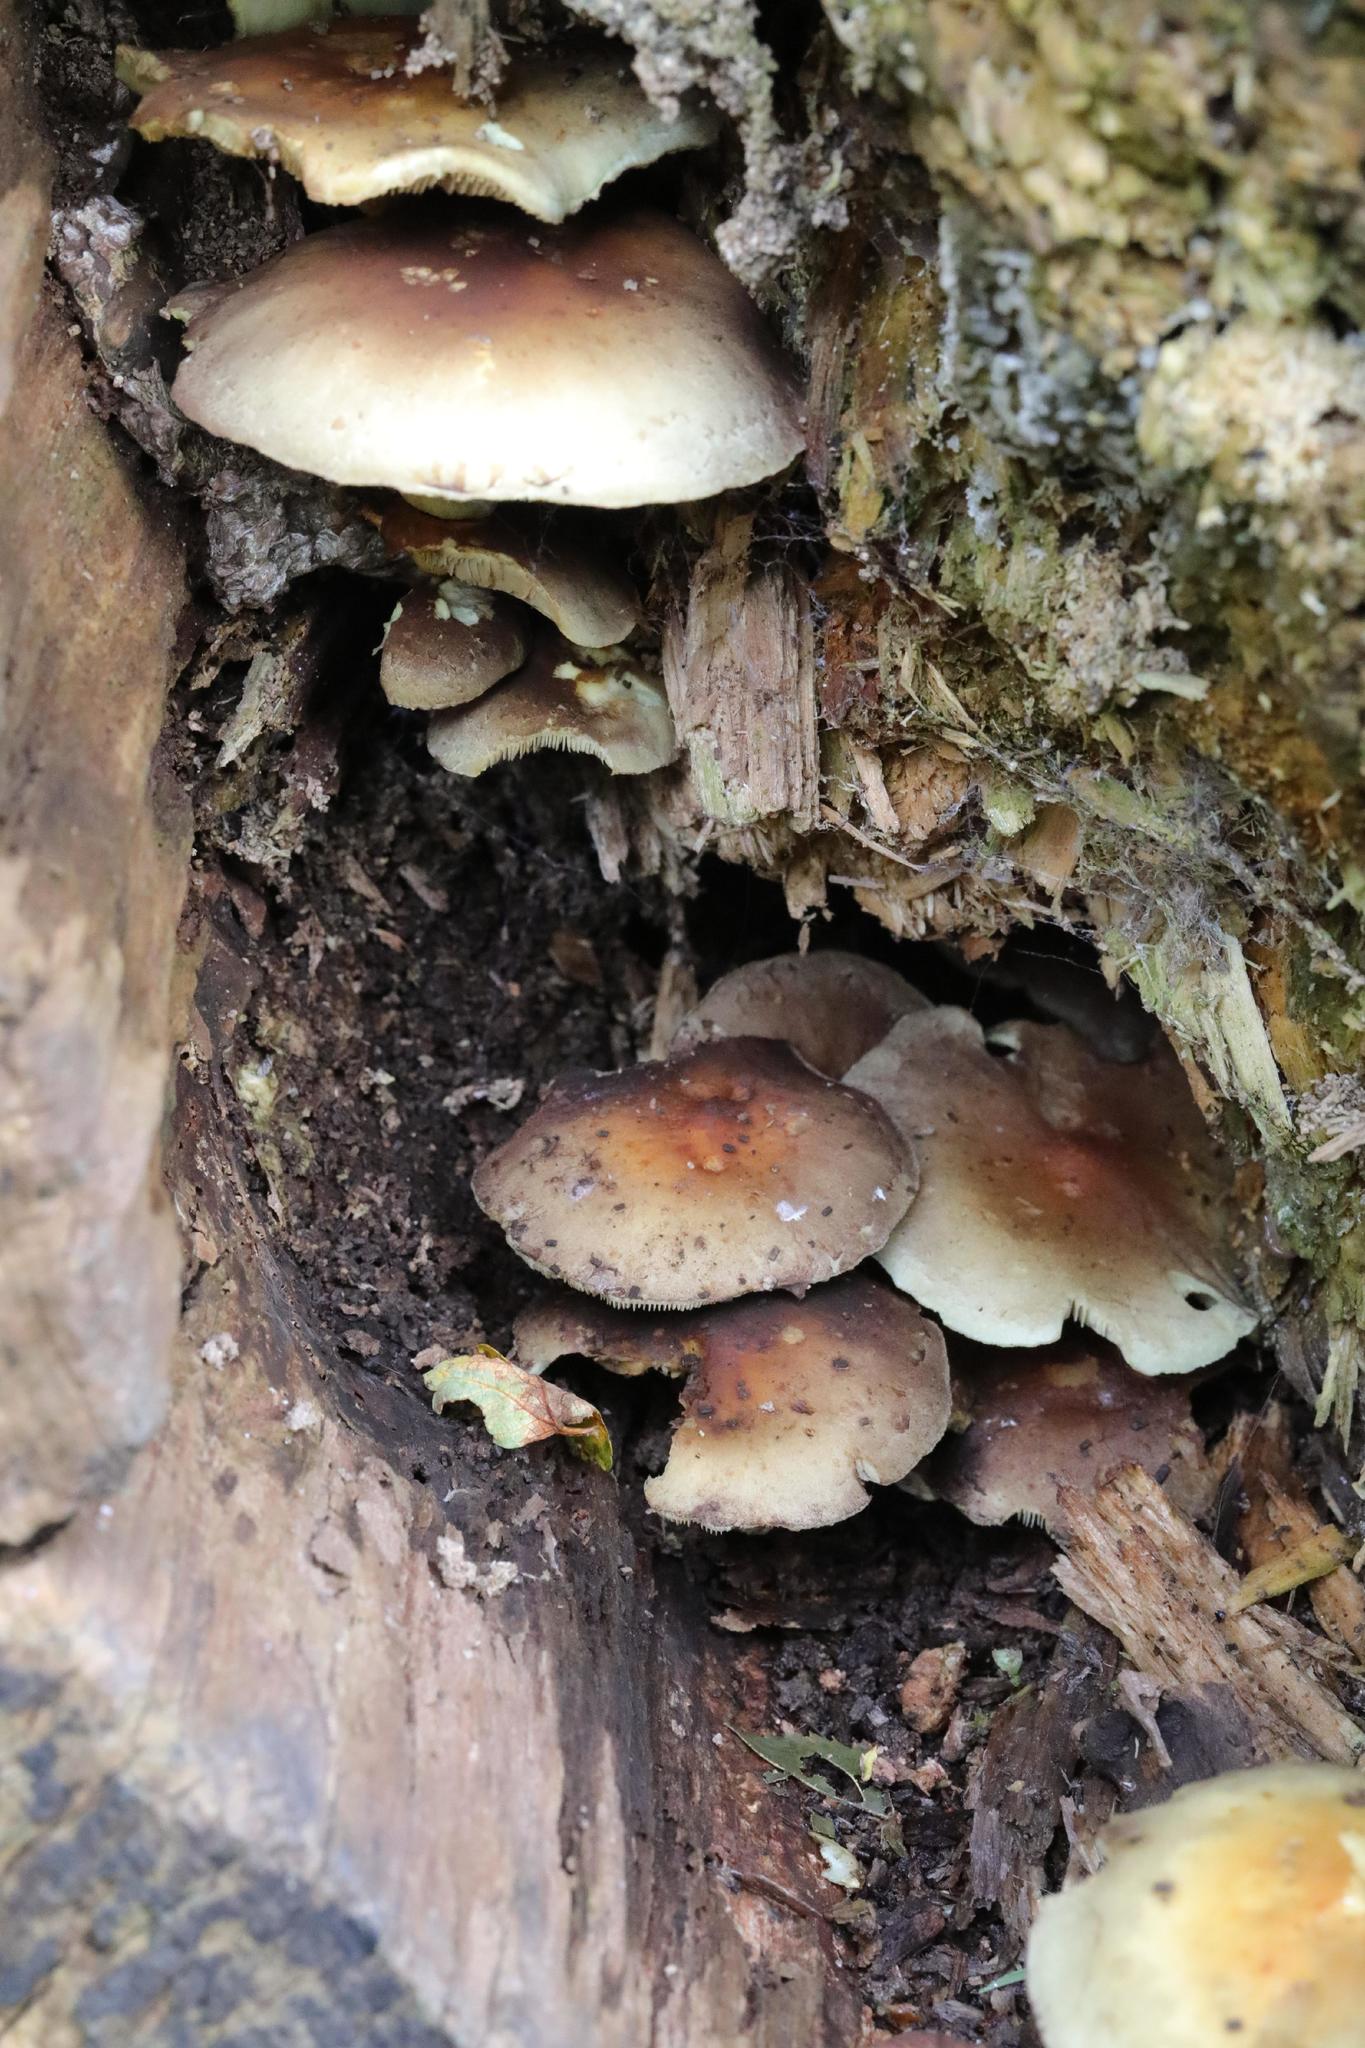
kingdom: Fungi
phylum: Basidiomycota
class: Agaricomycetes
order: Agaricales
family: Strophariaceae
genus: Hypholoma
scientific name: Hypholoma fasciculare
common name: Sulphur tuft
